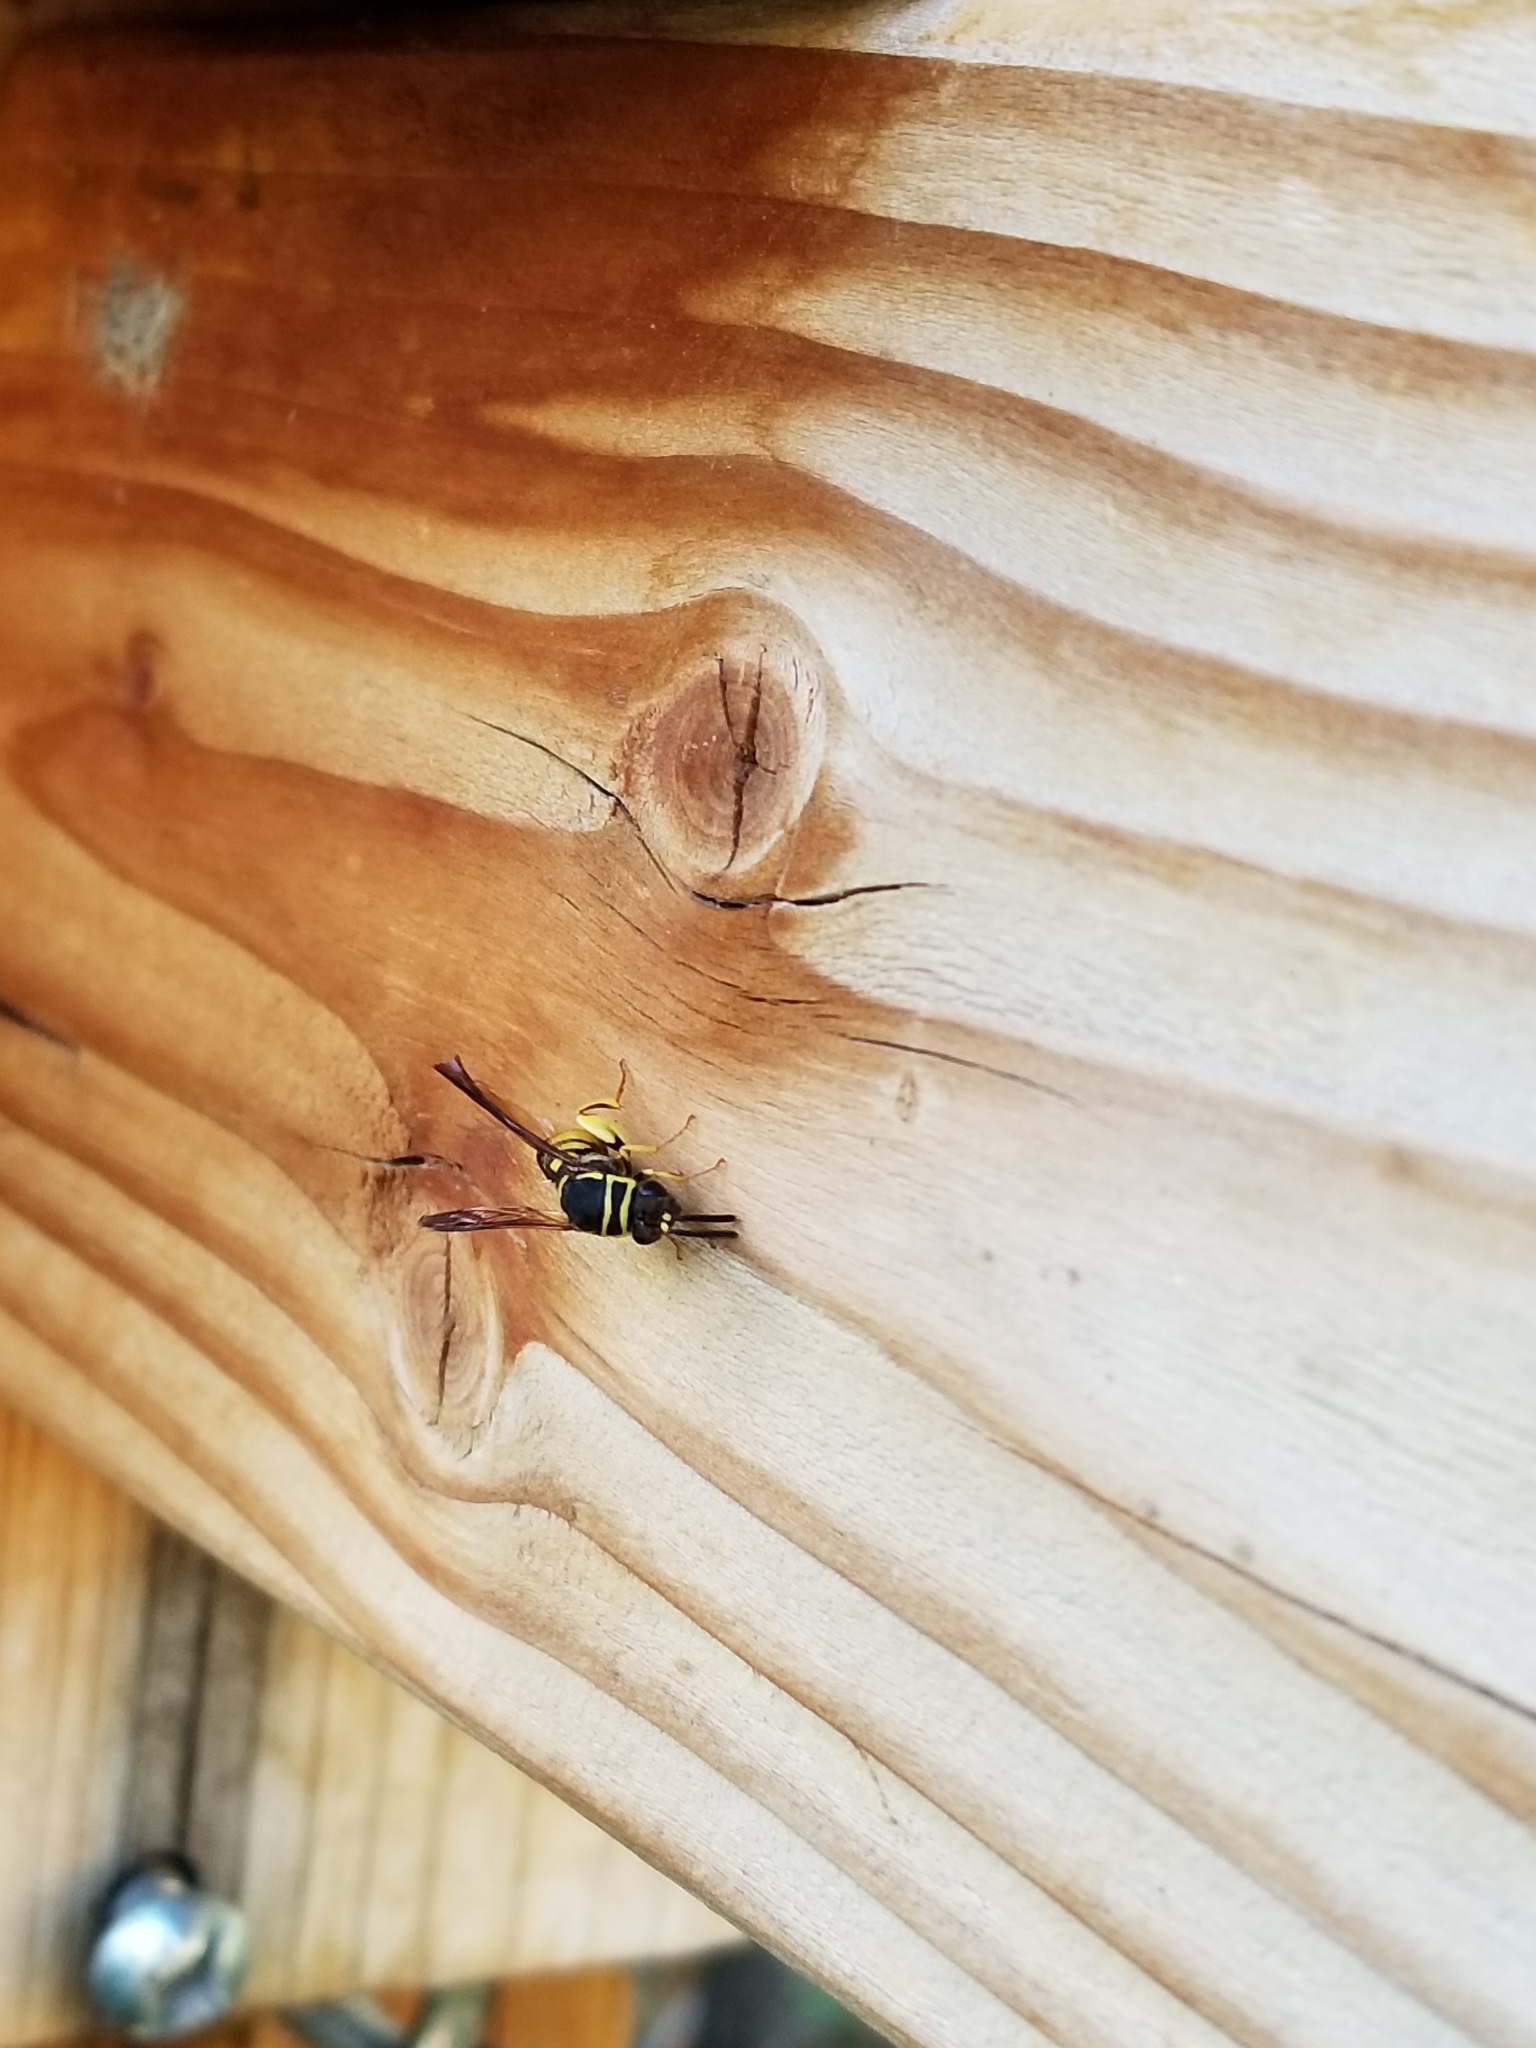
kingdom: Animalia
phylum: Arthropoda
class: Insecta
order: Hymenoptera
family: Leucospidae
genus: Leucospis
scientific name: Leucospis affinis
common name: Wasp
